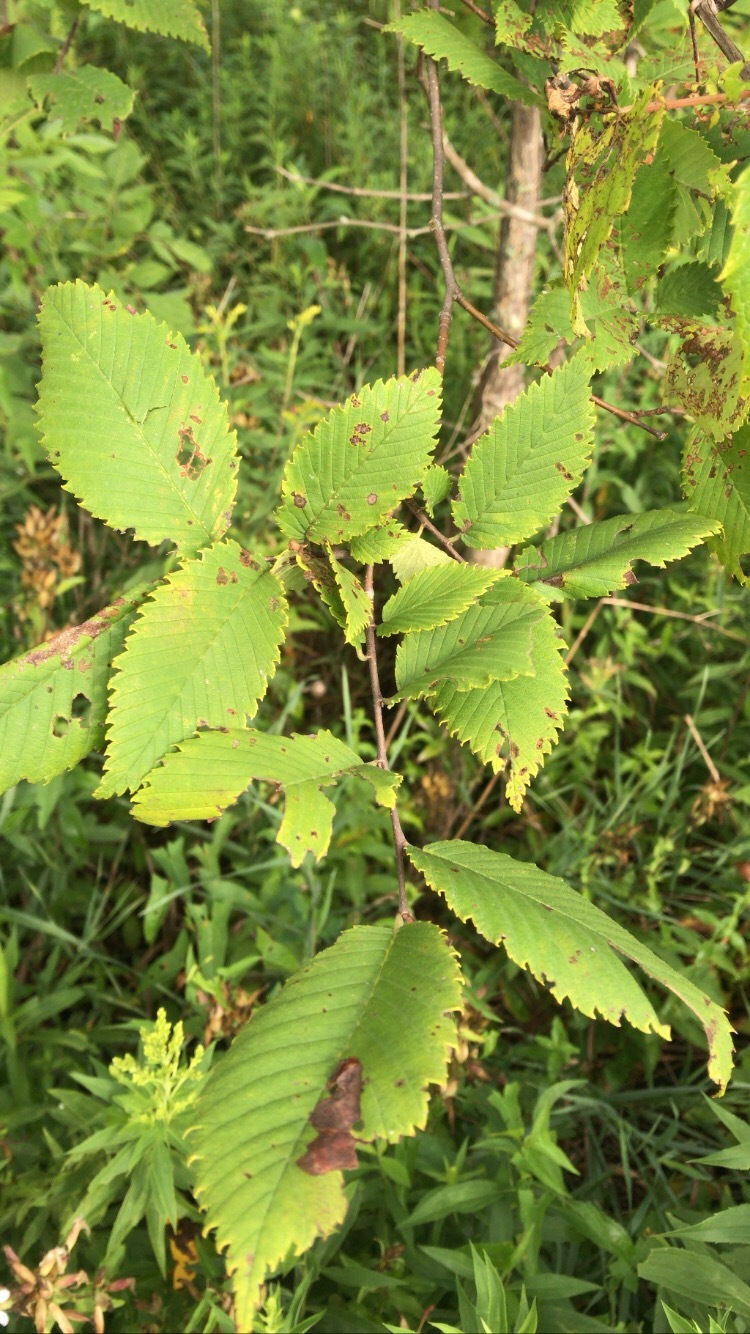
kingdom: Plantae
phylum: Tracheophyta
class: Magnoliopsida
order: Rosales
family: Ulmaceae
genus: Ulmus
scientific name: Ulmus americana
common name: American elm
